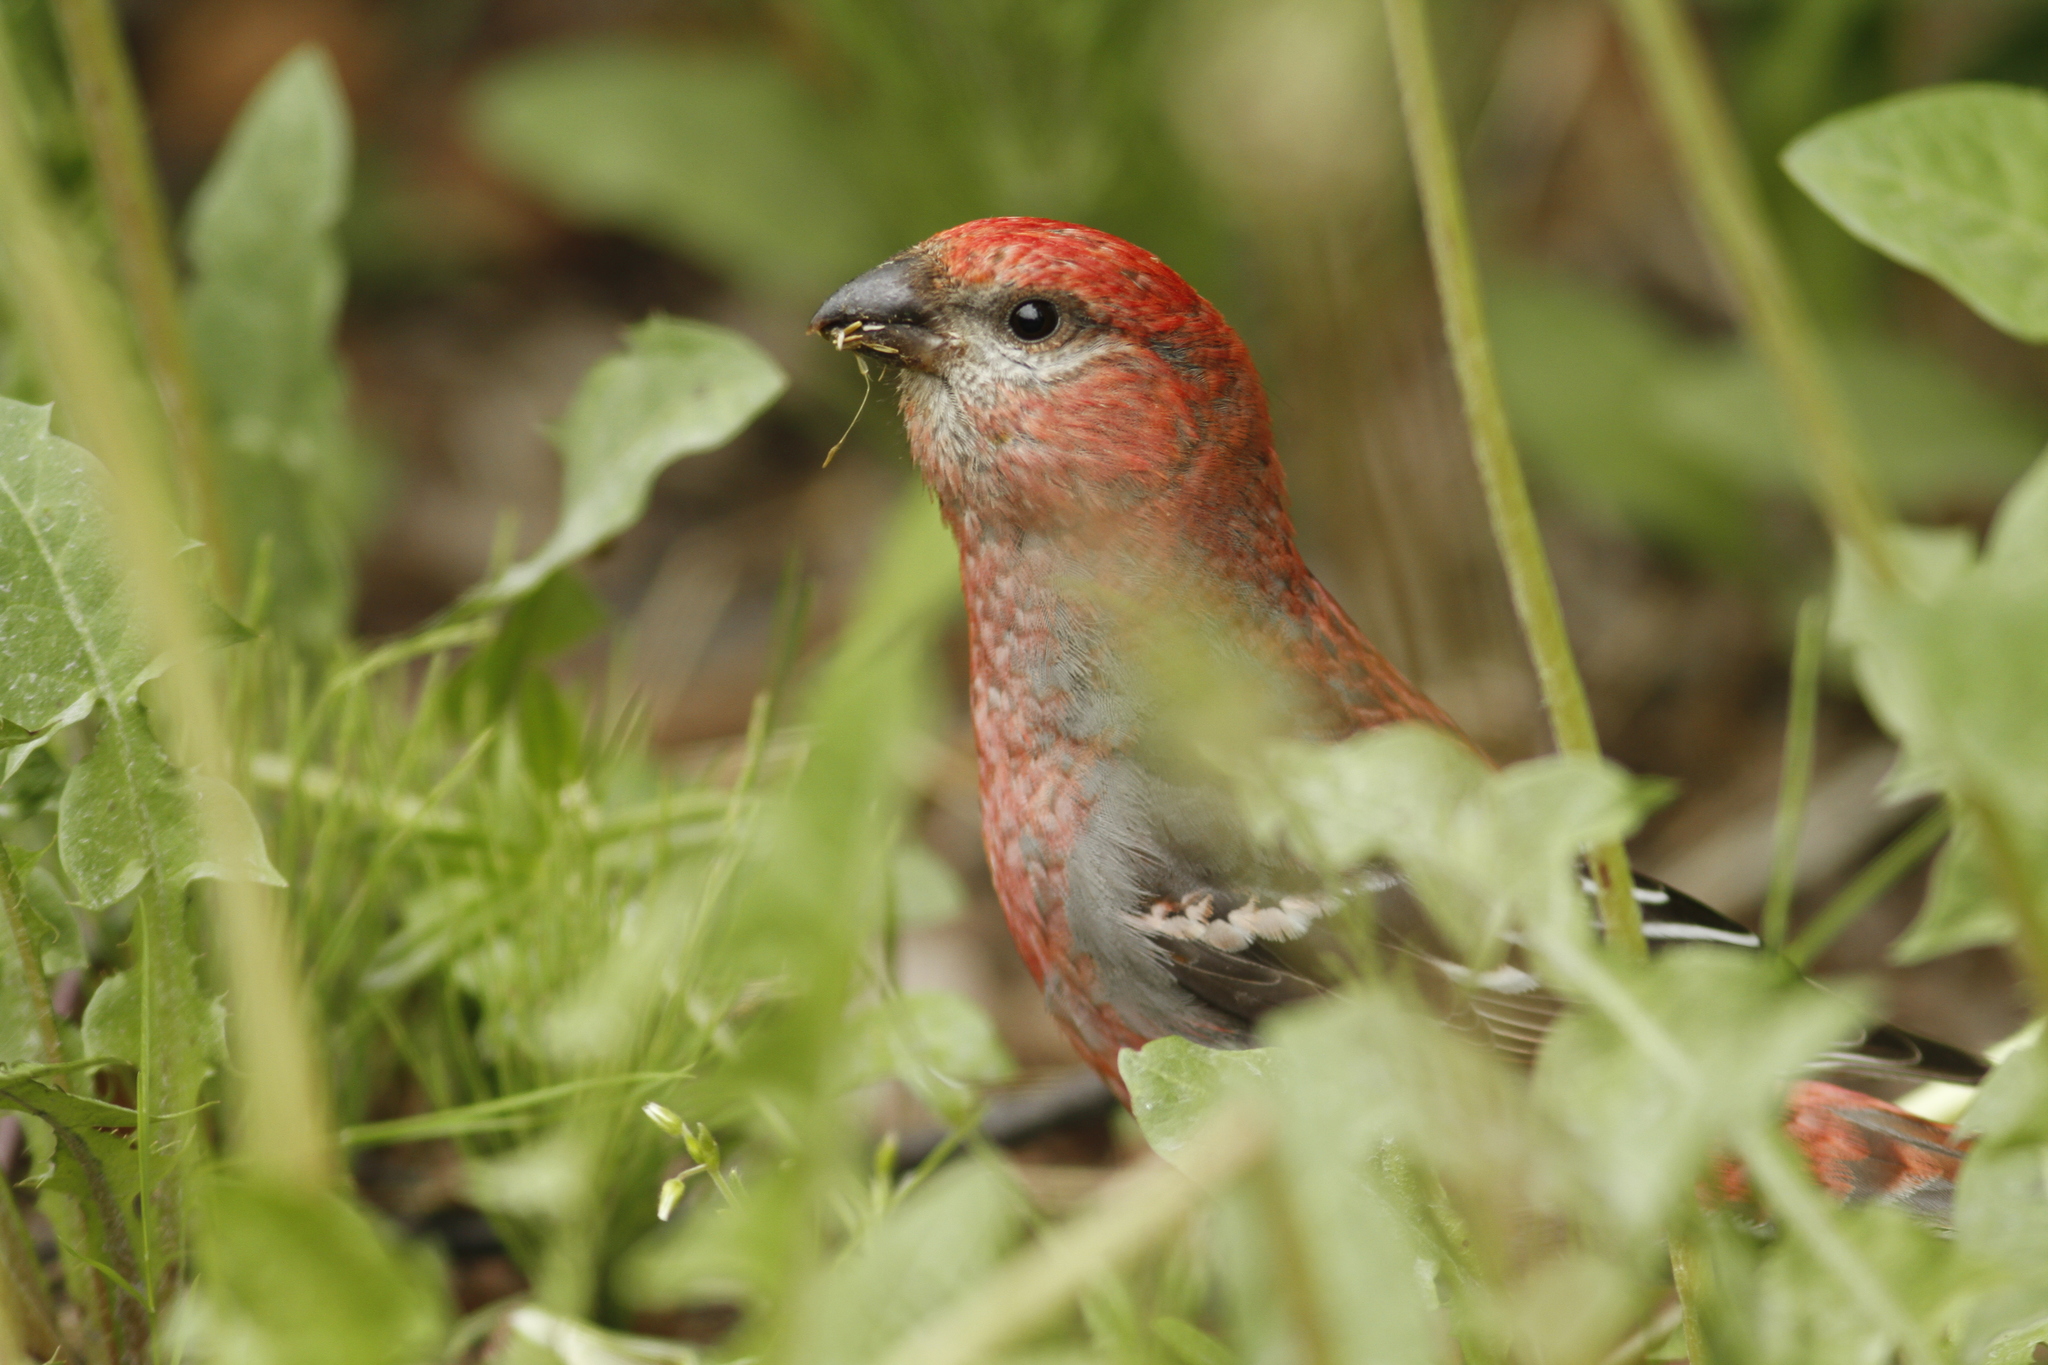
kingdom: Animalia
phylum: Chordata
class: Aves
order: Passeriformes
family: Fringillidae
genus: Pinicola
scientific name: Pinicola enucleator
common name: Pine grosbeak
